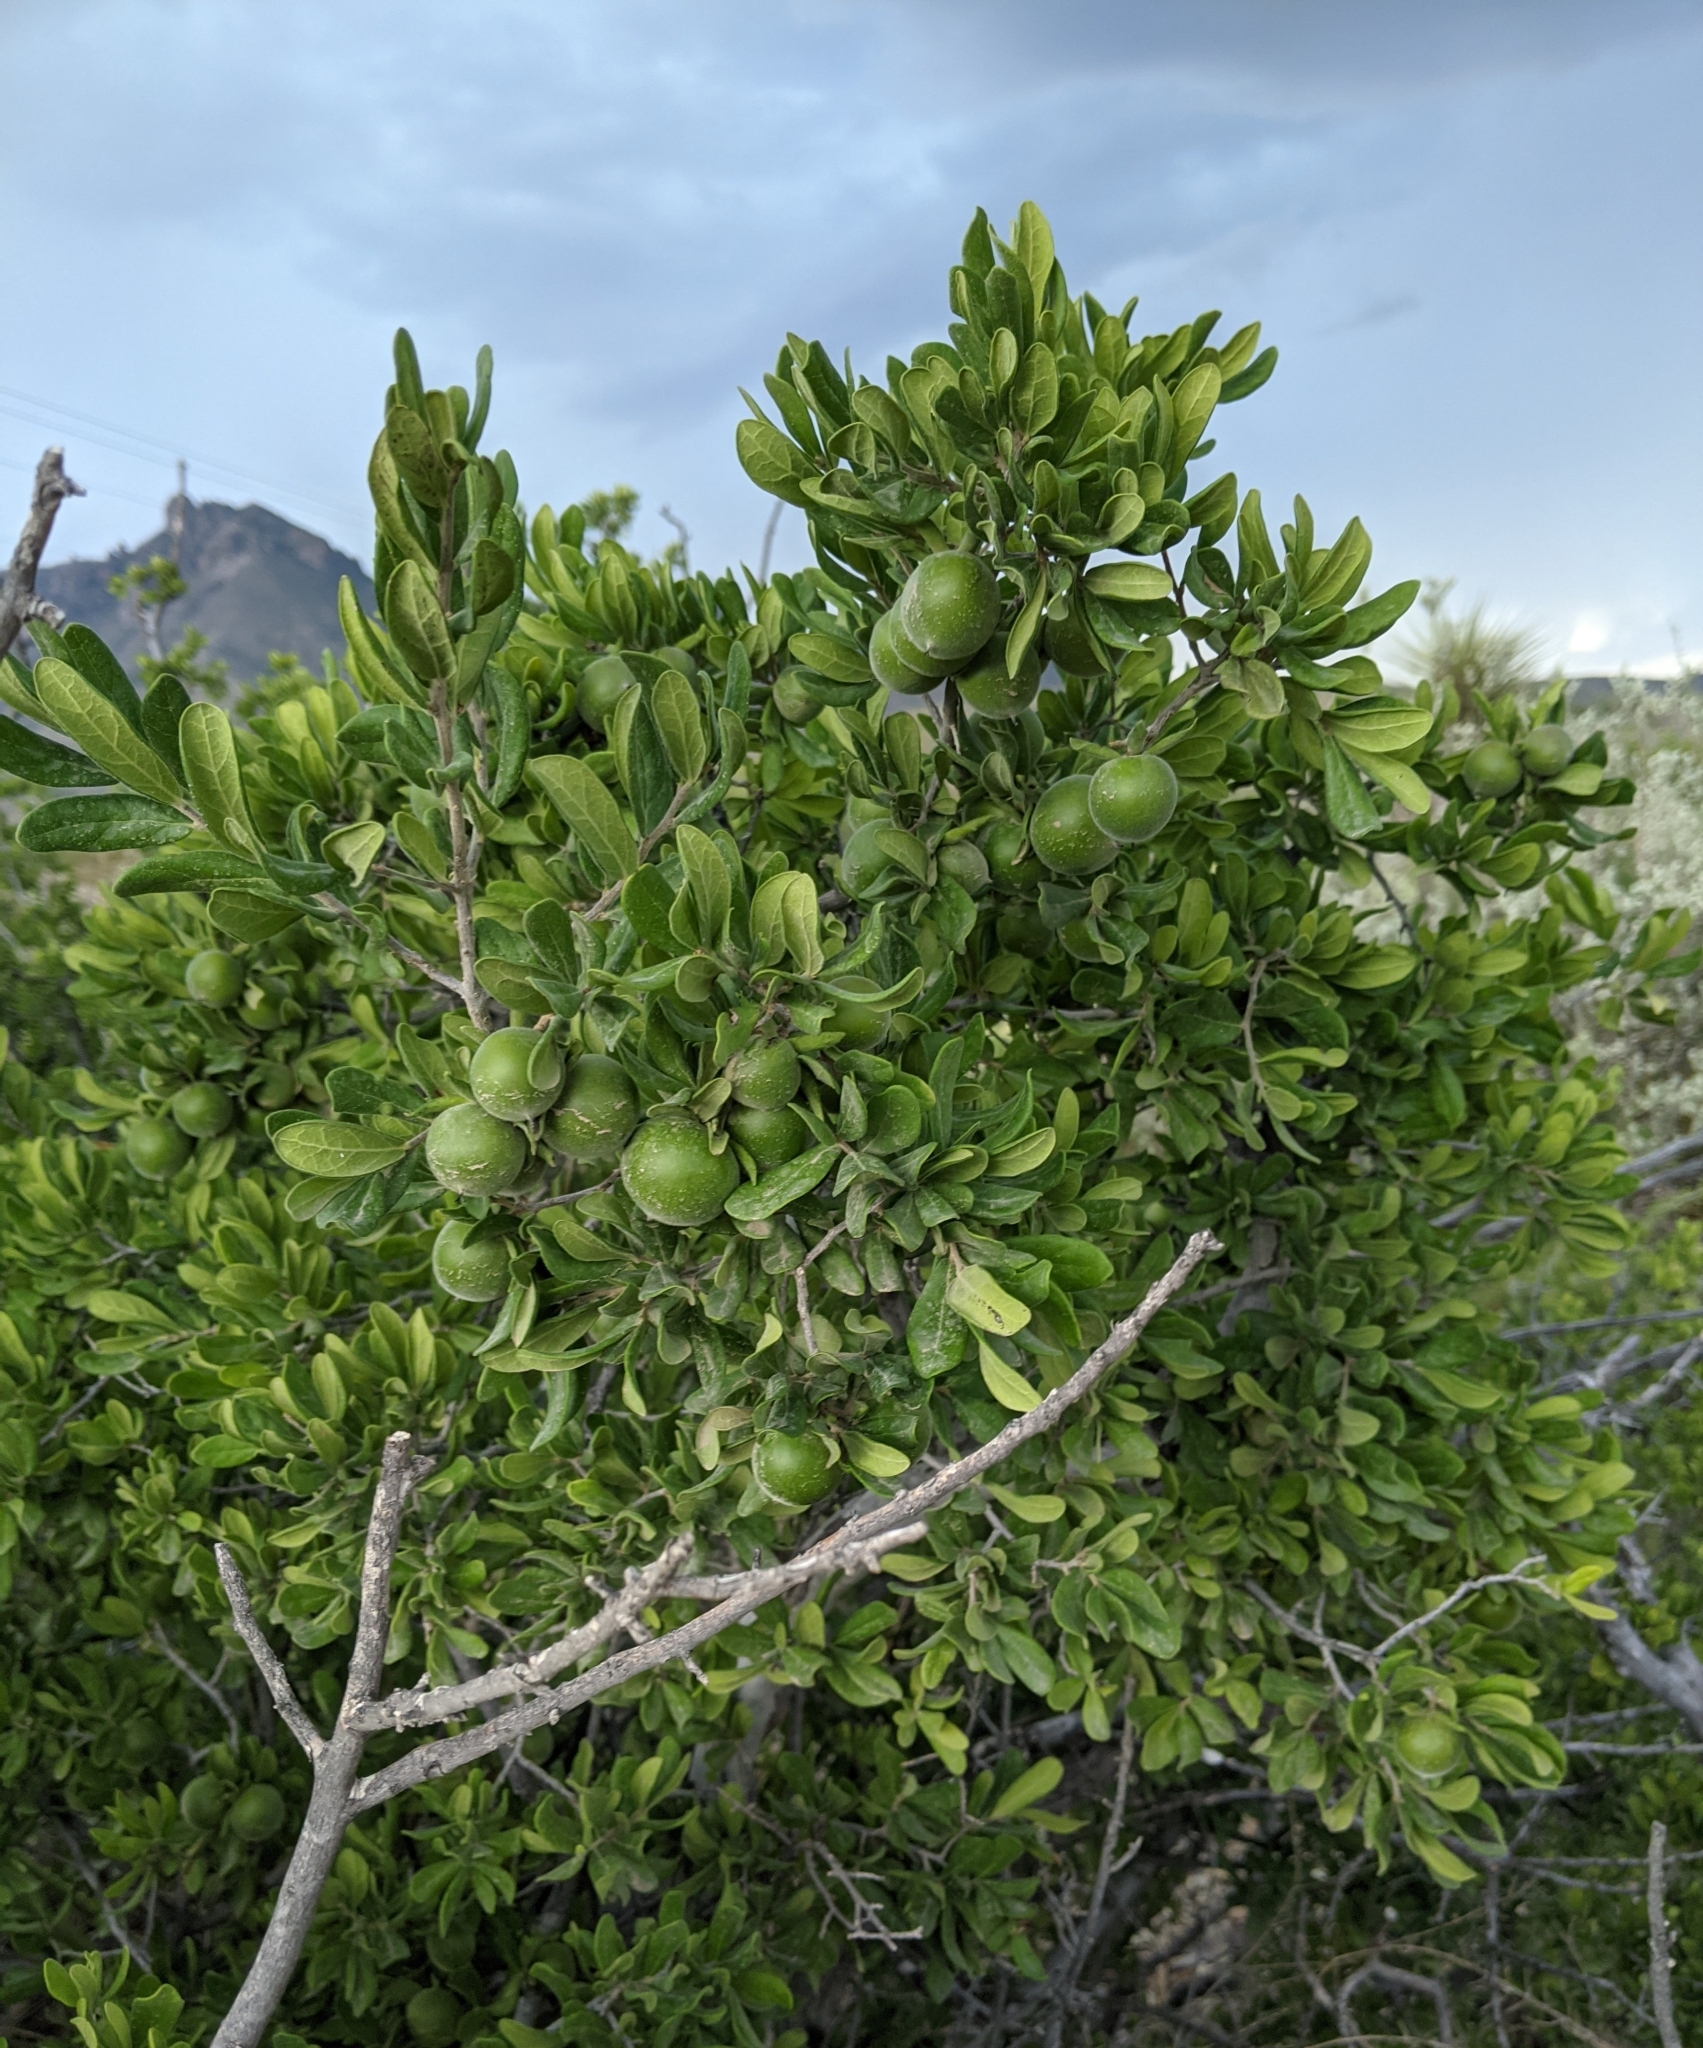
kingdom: Plantae
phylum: Tracheophyta
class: Magnoliopsida
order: Ericales
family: Ebenaceae
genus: Diospyros
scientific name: Diospyros texana
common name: Texas persimmon
